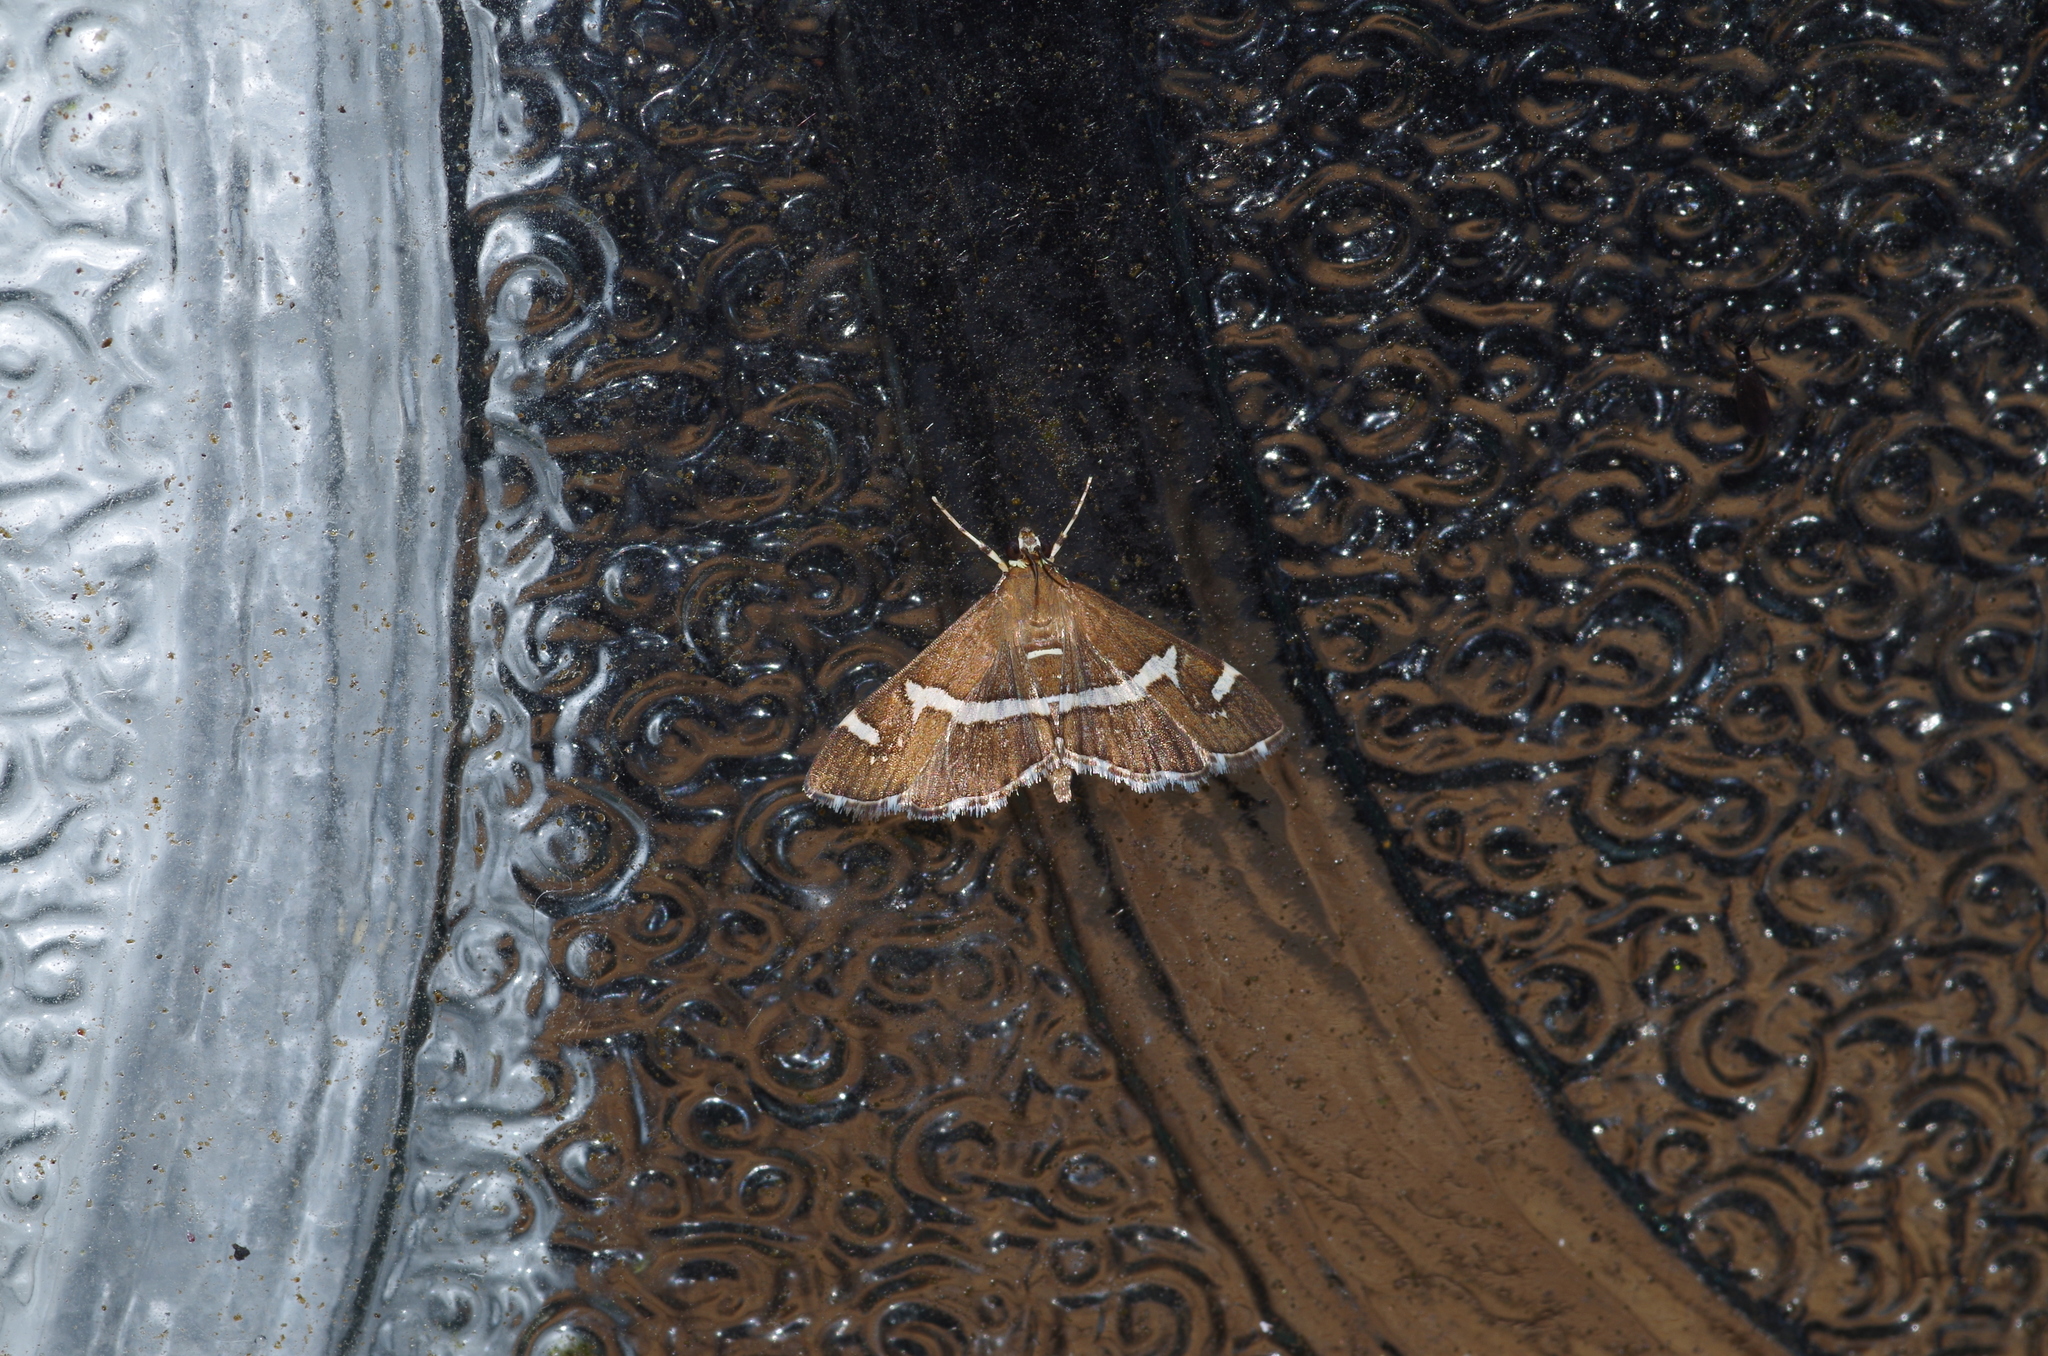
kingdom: Animalia
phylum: Arthropoda
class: Insecta
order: Lepidoptera
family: Crambidae
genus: Spoladea
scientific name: Spoladea recurvalis
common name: Beet webworm moth
